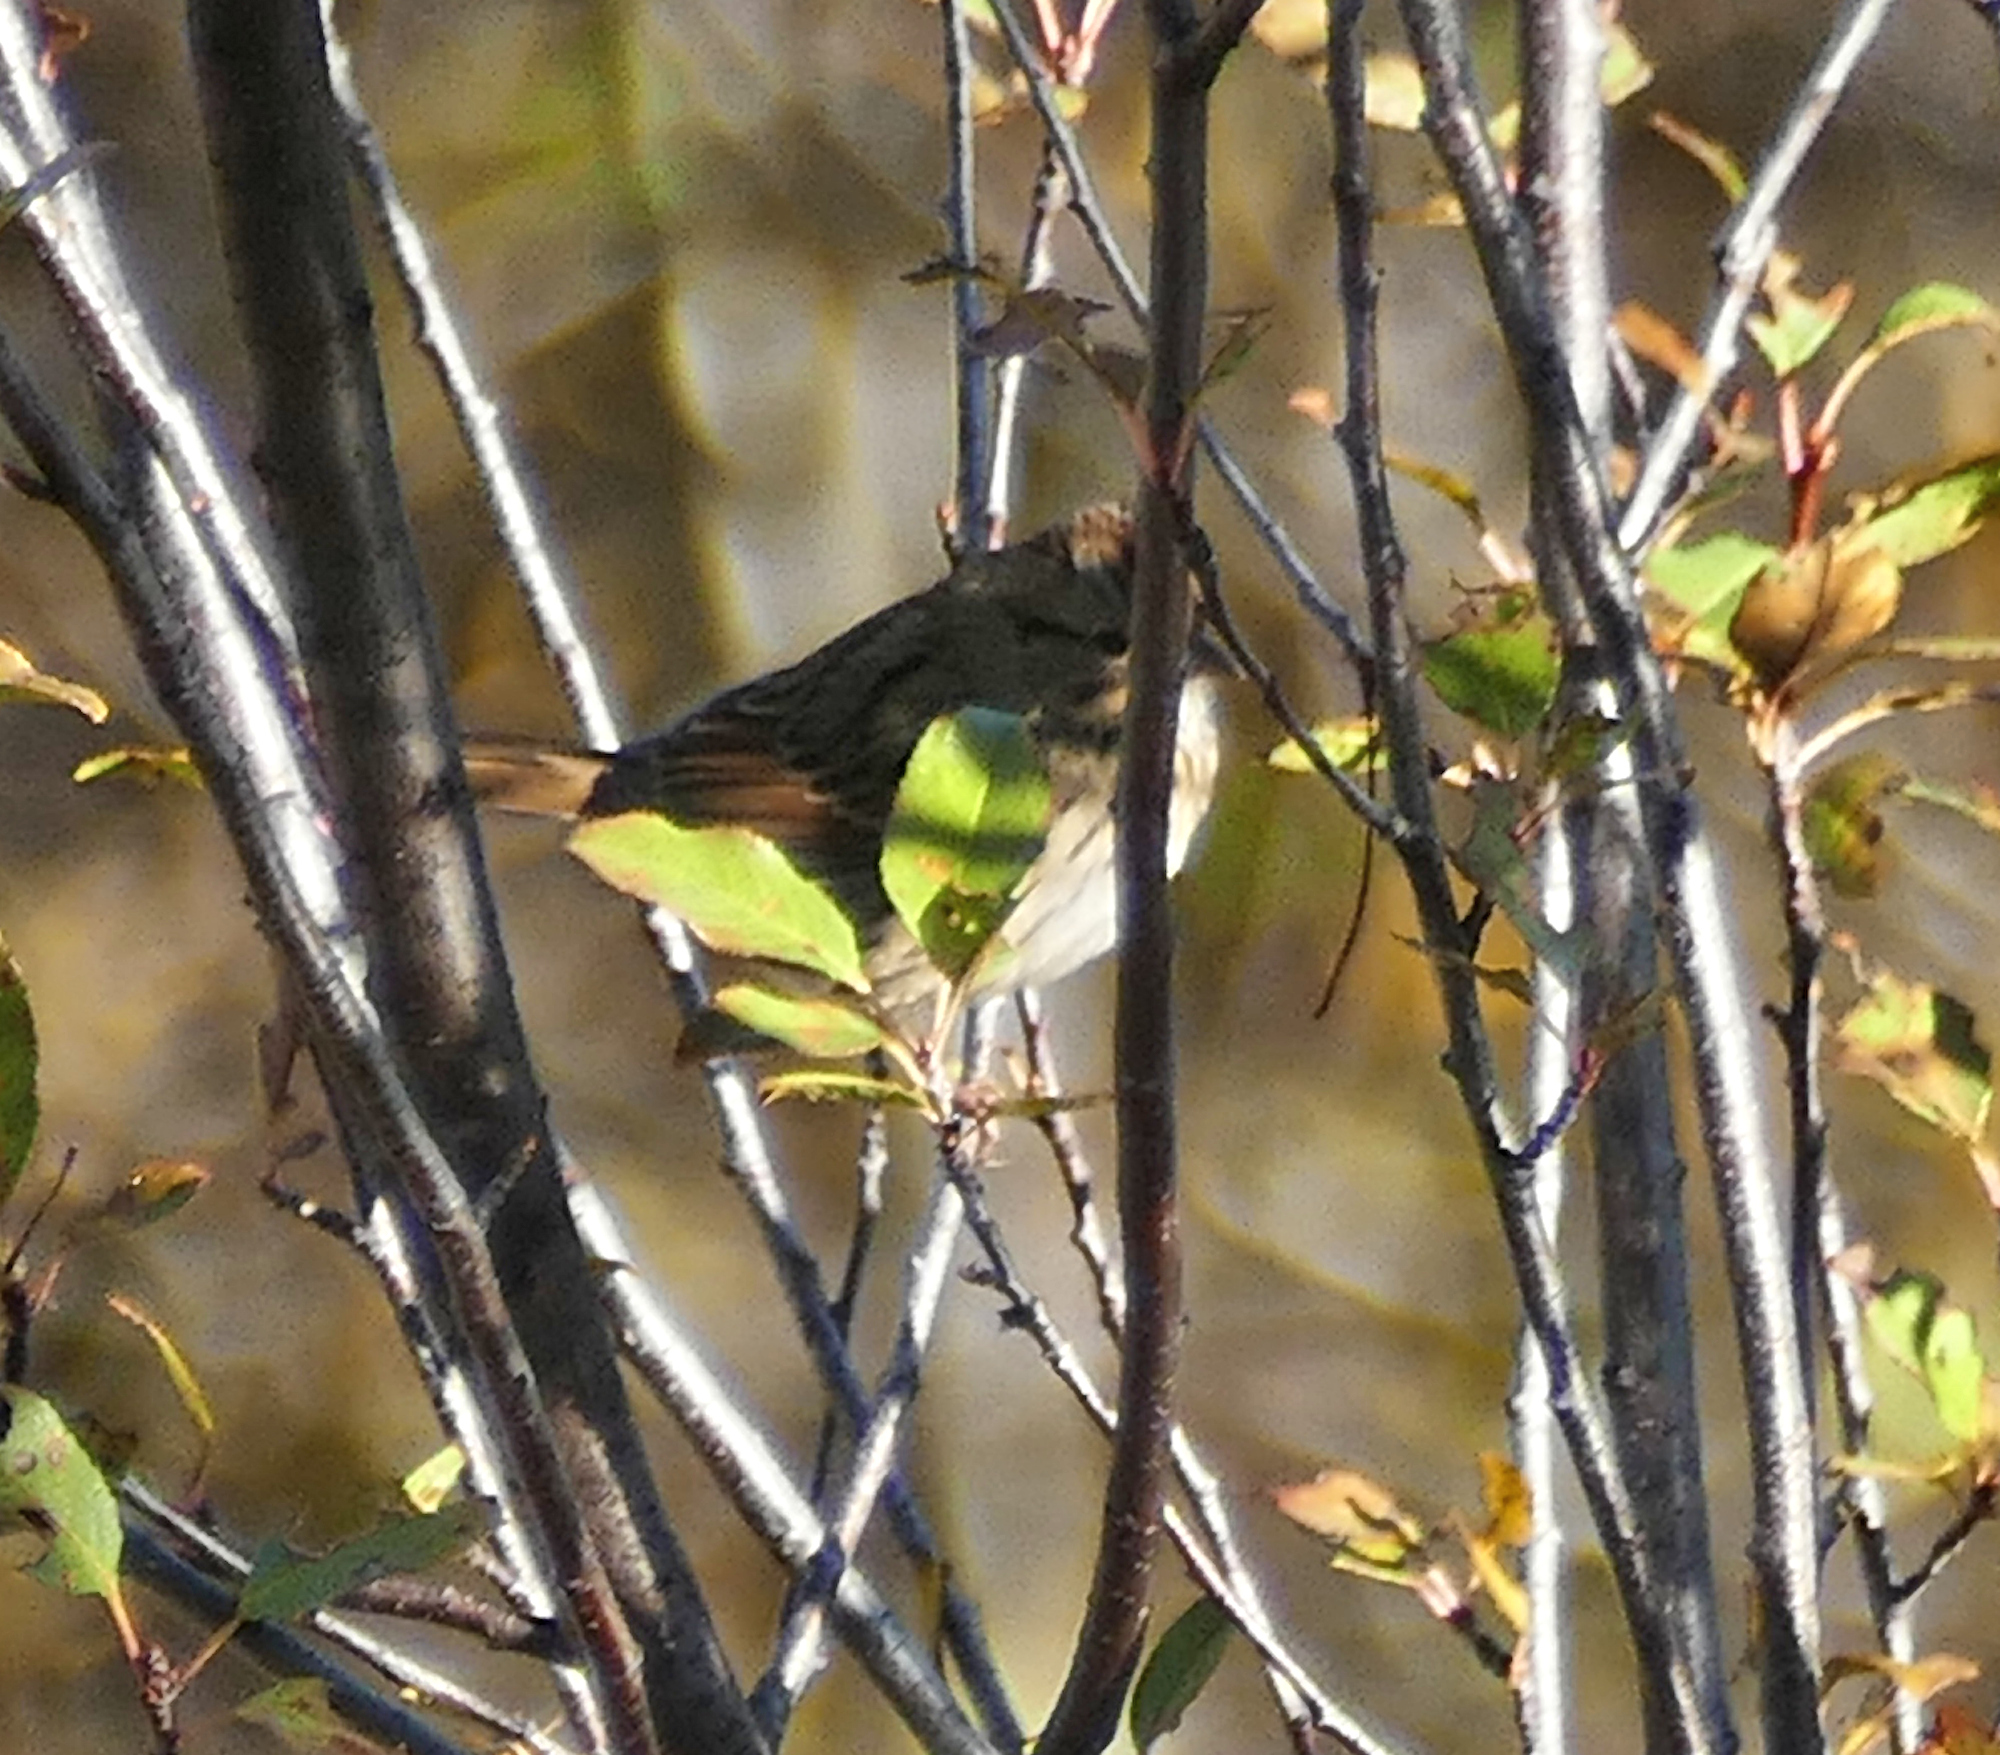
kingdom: Animalia
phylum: Chordata
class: Aves
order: Passeriformes
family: Passerellidae
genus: Melospiza
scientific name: Melospiza lincolnii
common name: Lincoln's sparrow
